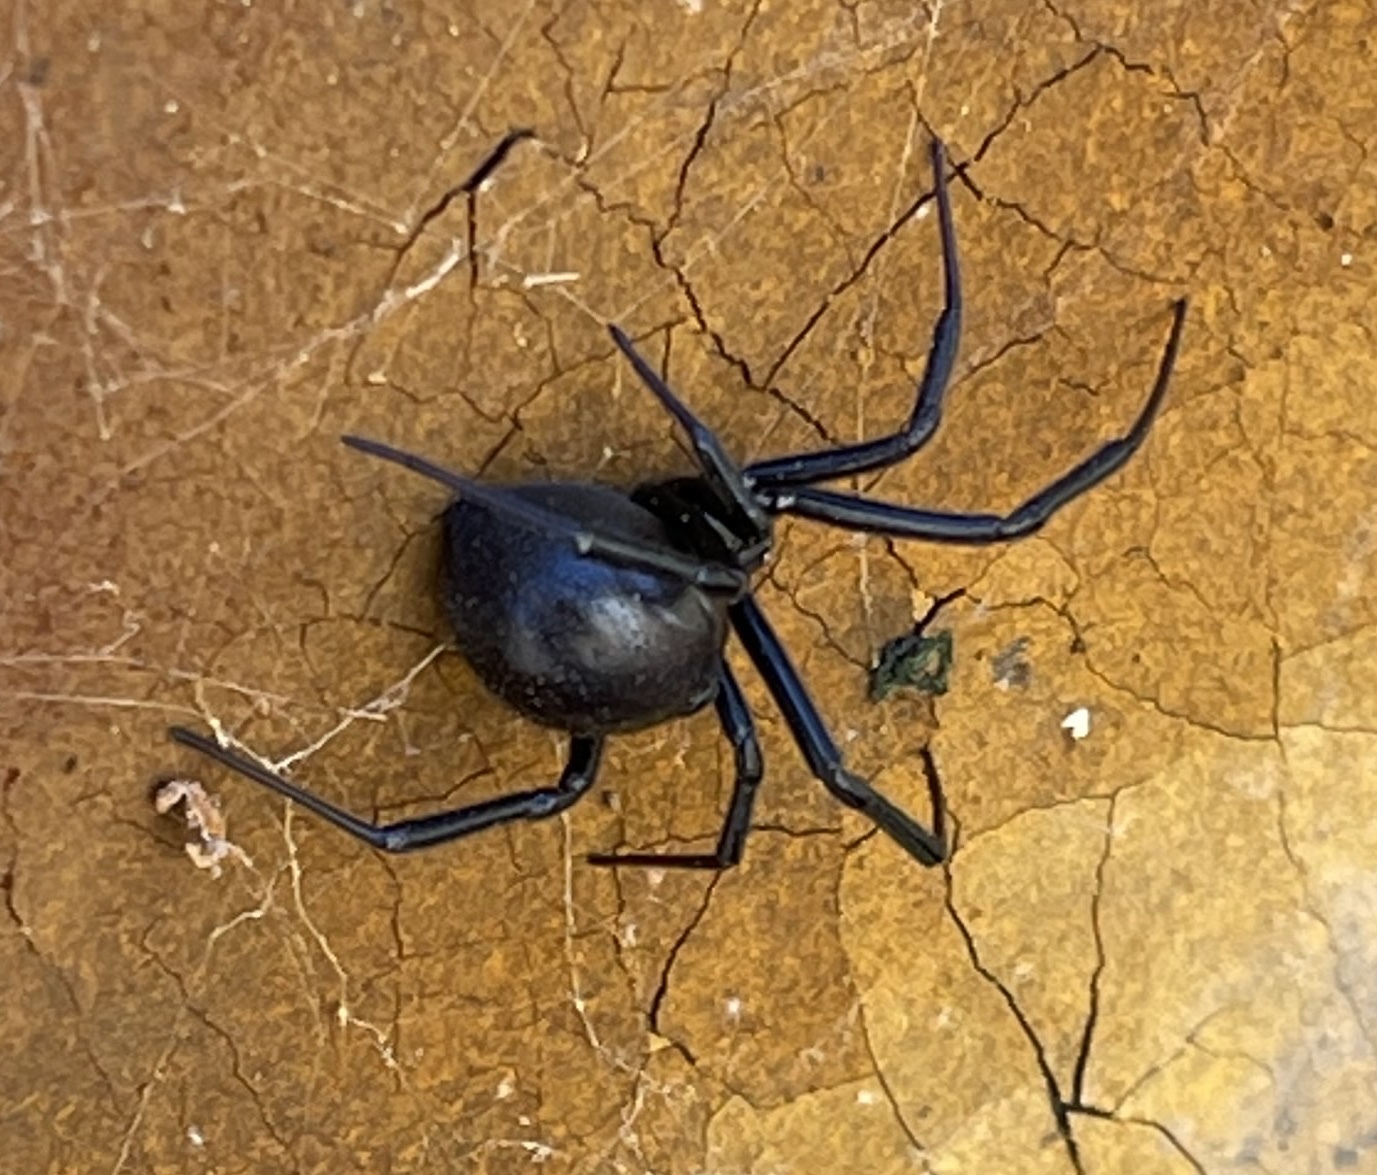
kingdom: Animalia
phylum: Arthropoda
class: Arachnida
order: Araneae
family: Theridiidae
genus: Latrodectus
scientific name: Latrodectus hesperus
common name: Western black widow
